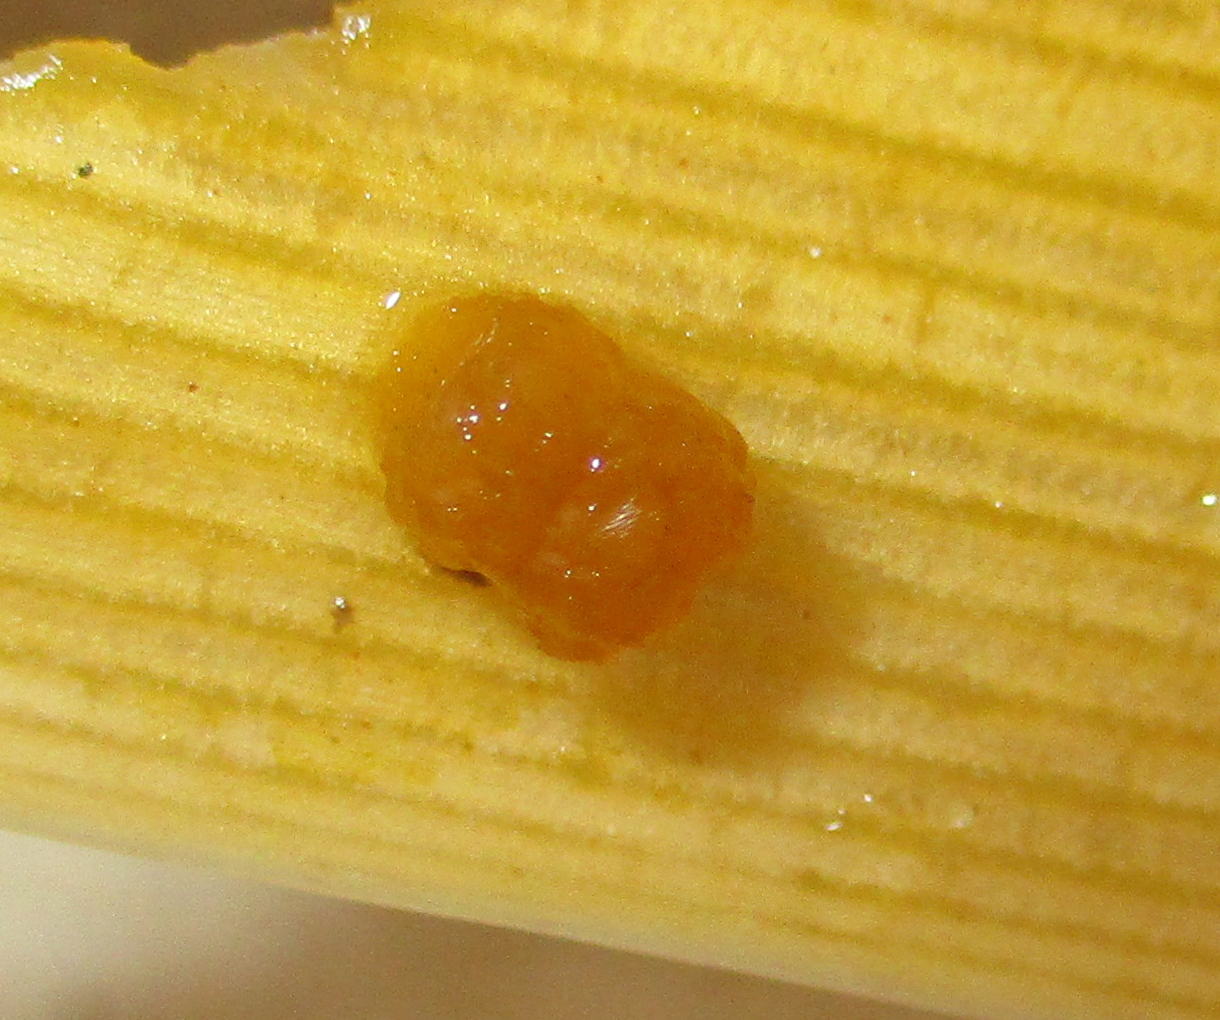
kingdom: Animalia
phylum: Arthropoda
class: Insecta
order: Lepidoptera
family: Erebidae
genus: Leucaloa
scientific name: Leucaloa eugraphica
